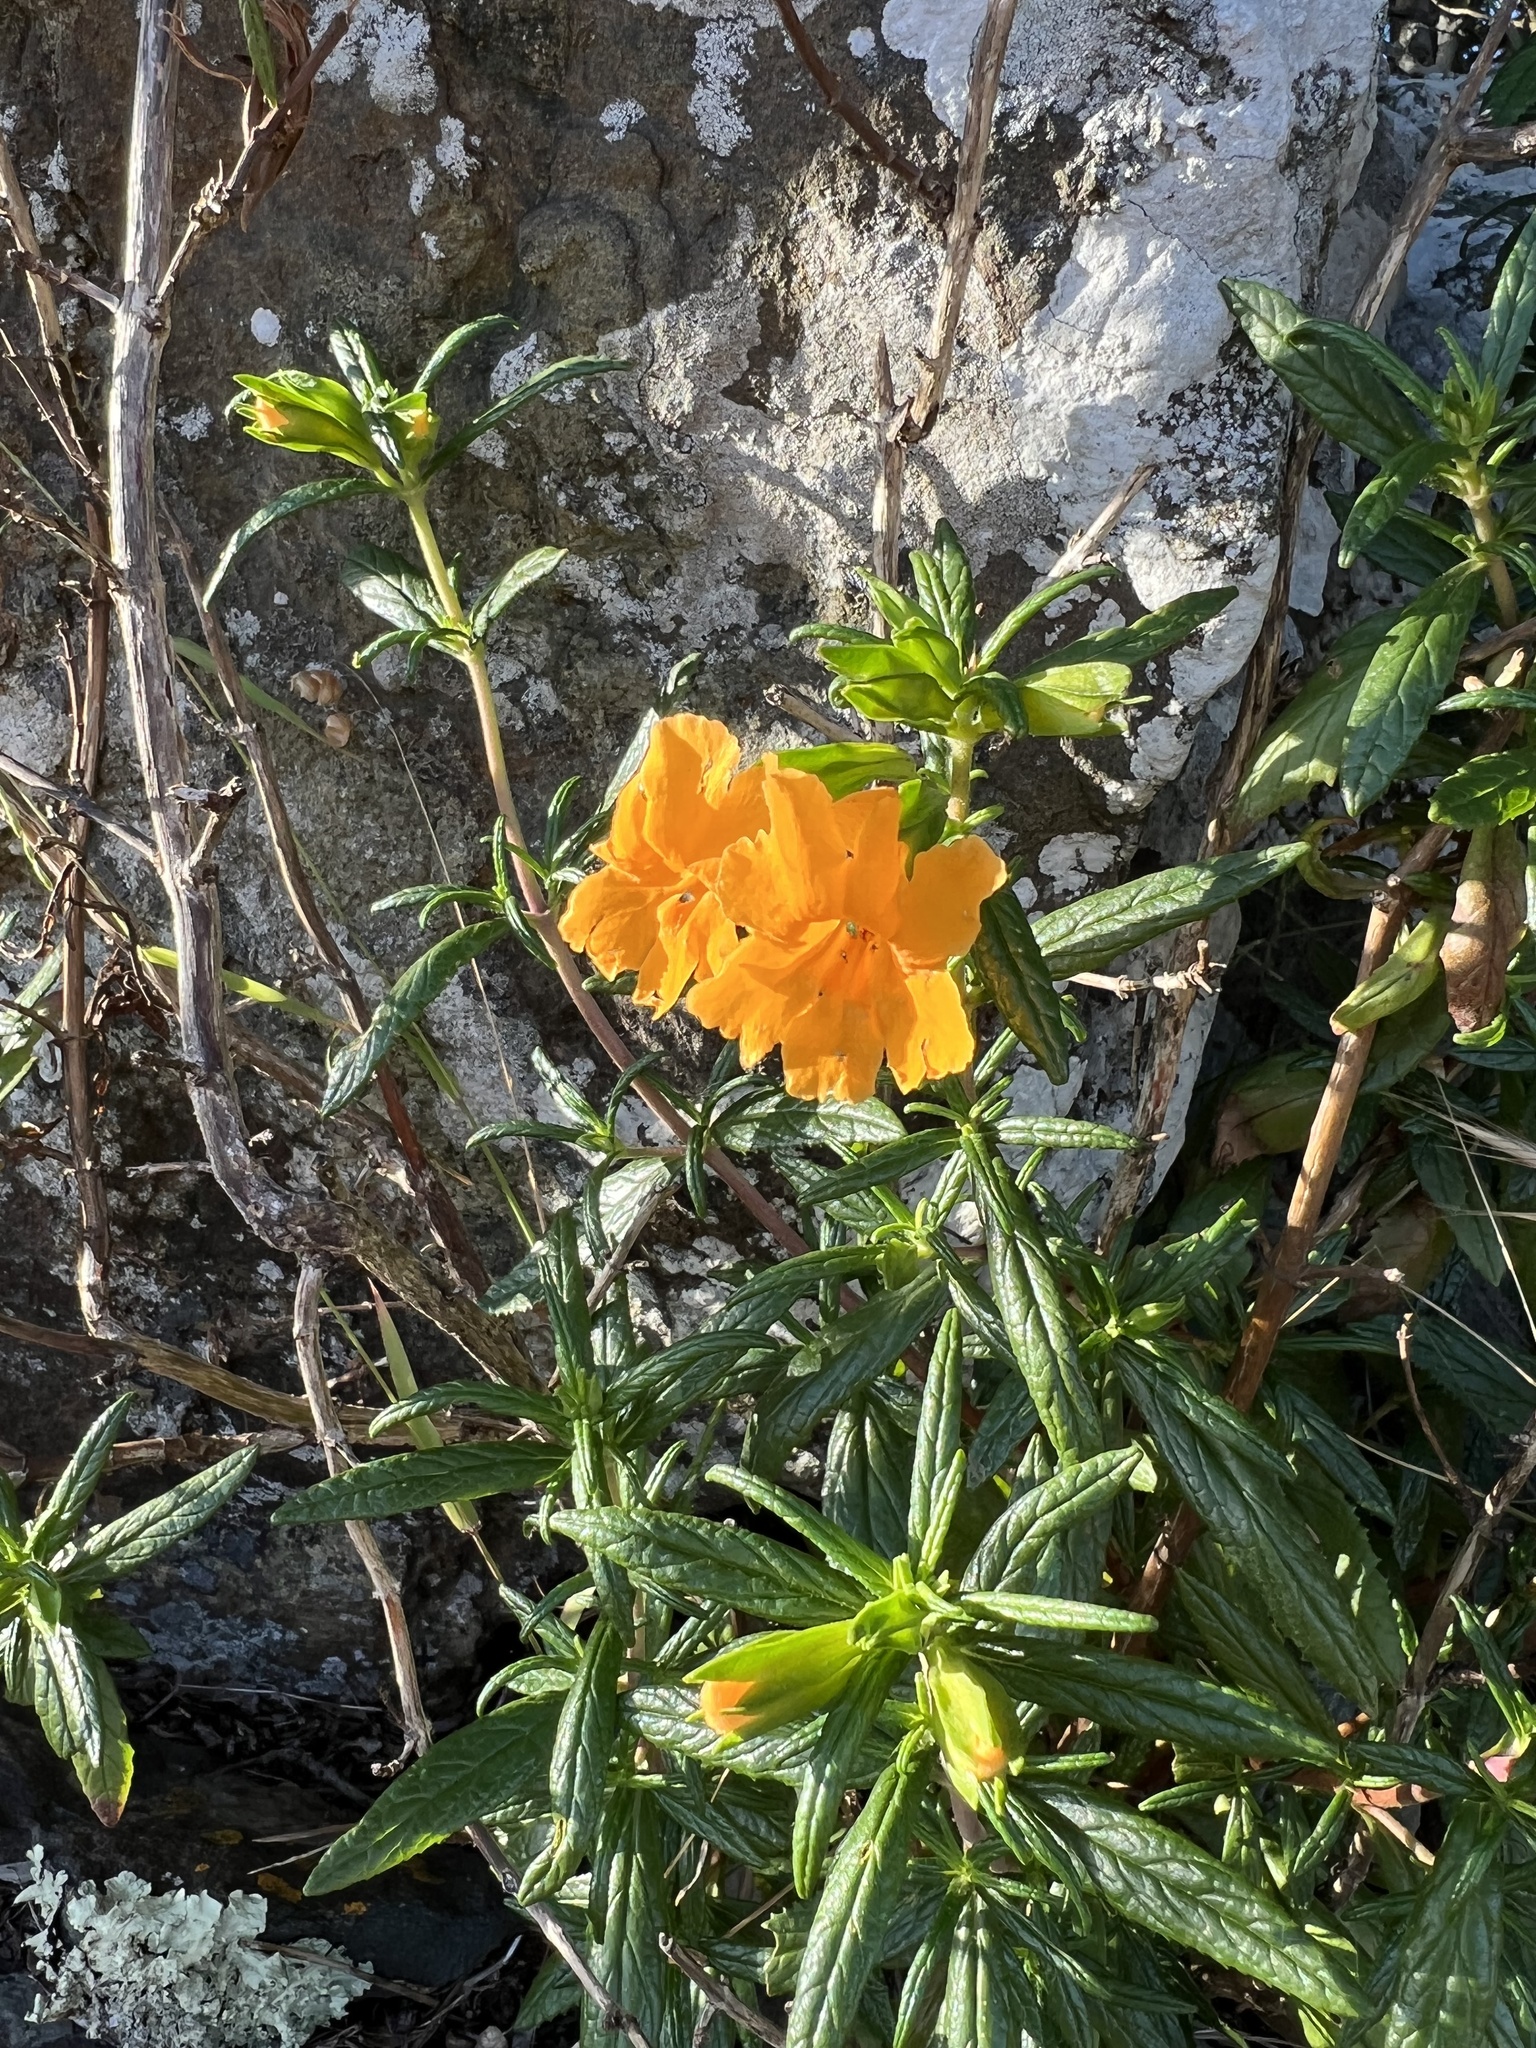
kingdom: Plantae
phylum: Tracheophyta
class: Magnoliopsida
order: Lamiales
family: Phrymaceae
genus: Diplacus
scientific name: Diplacus aurantiacus
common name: Bush monkey-flower
